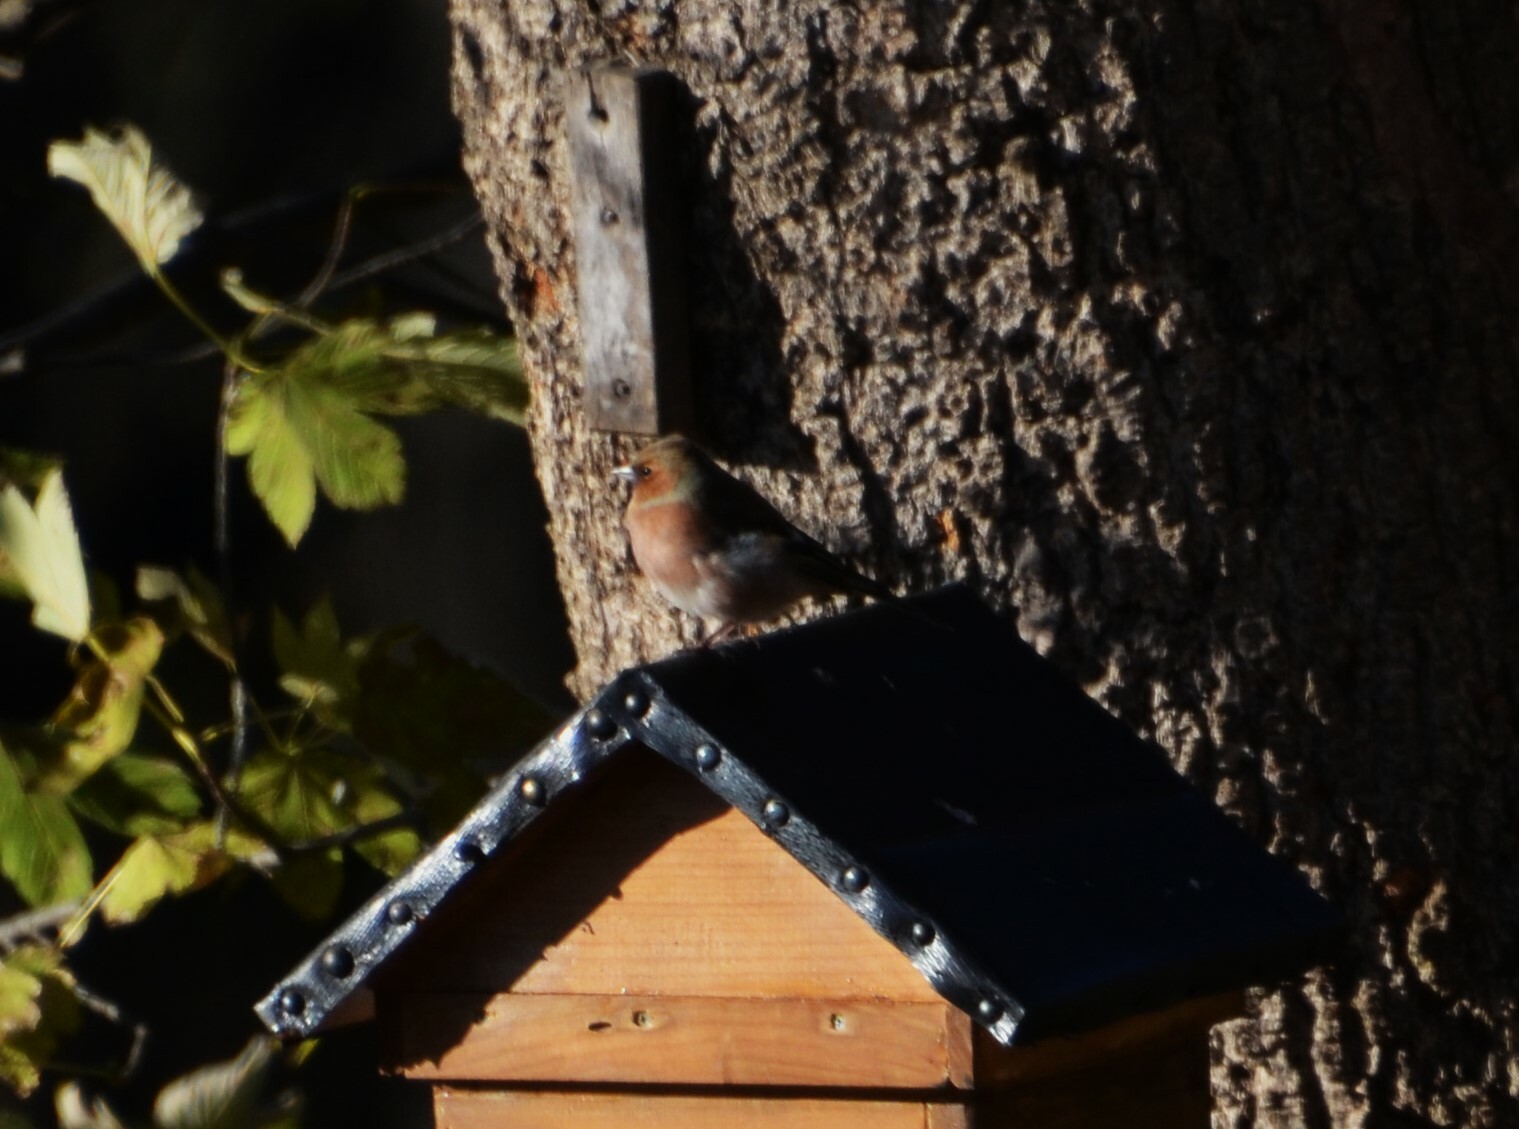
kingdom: Animalia
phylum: Chordata
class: Aves
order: Passeriformes
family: Fringillidae
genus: Fringilla
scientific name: Fringilla coelebs
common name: Common chaffinch
